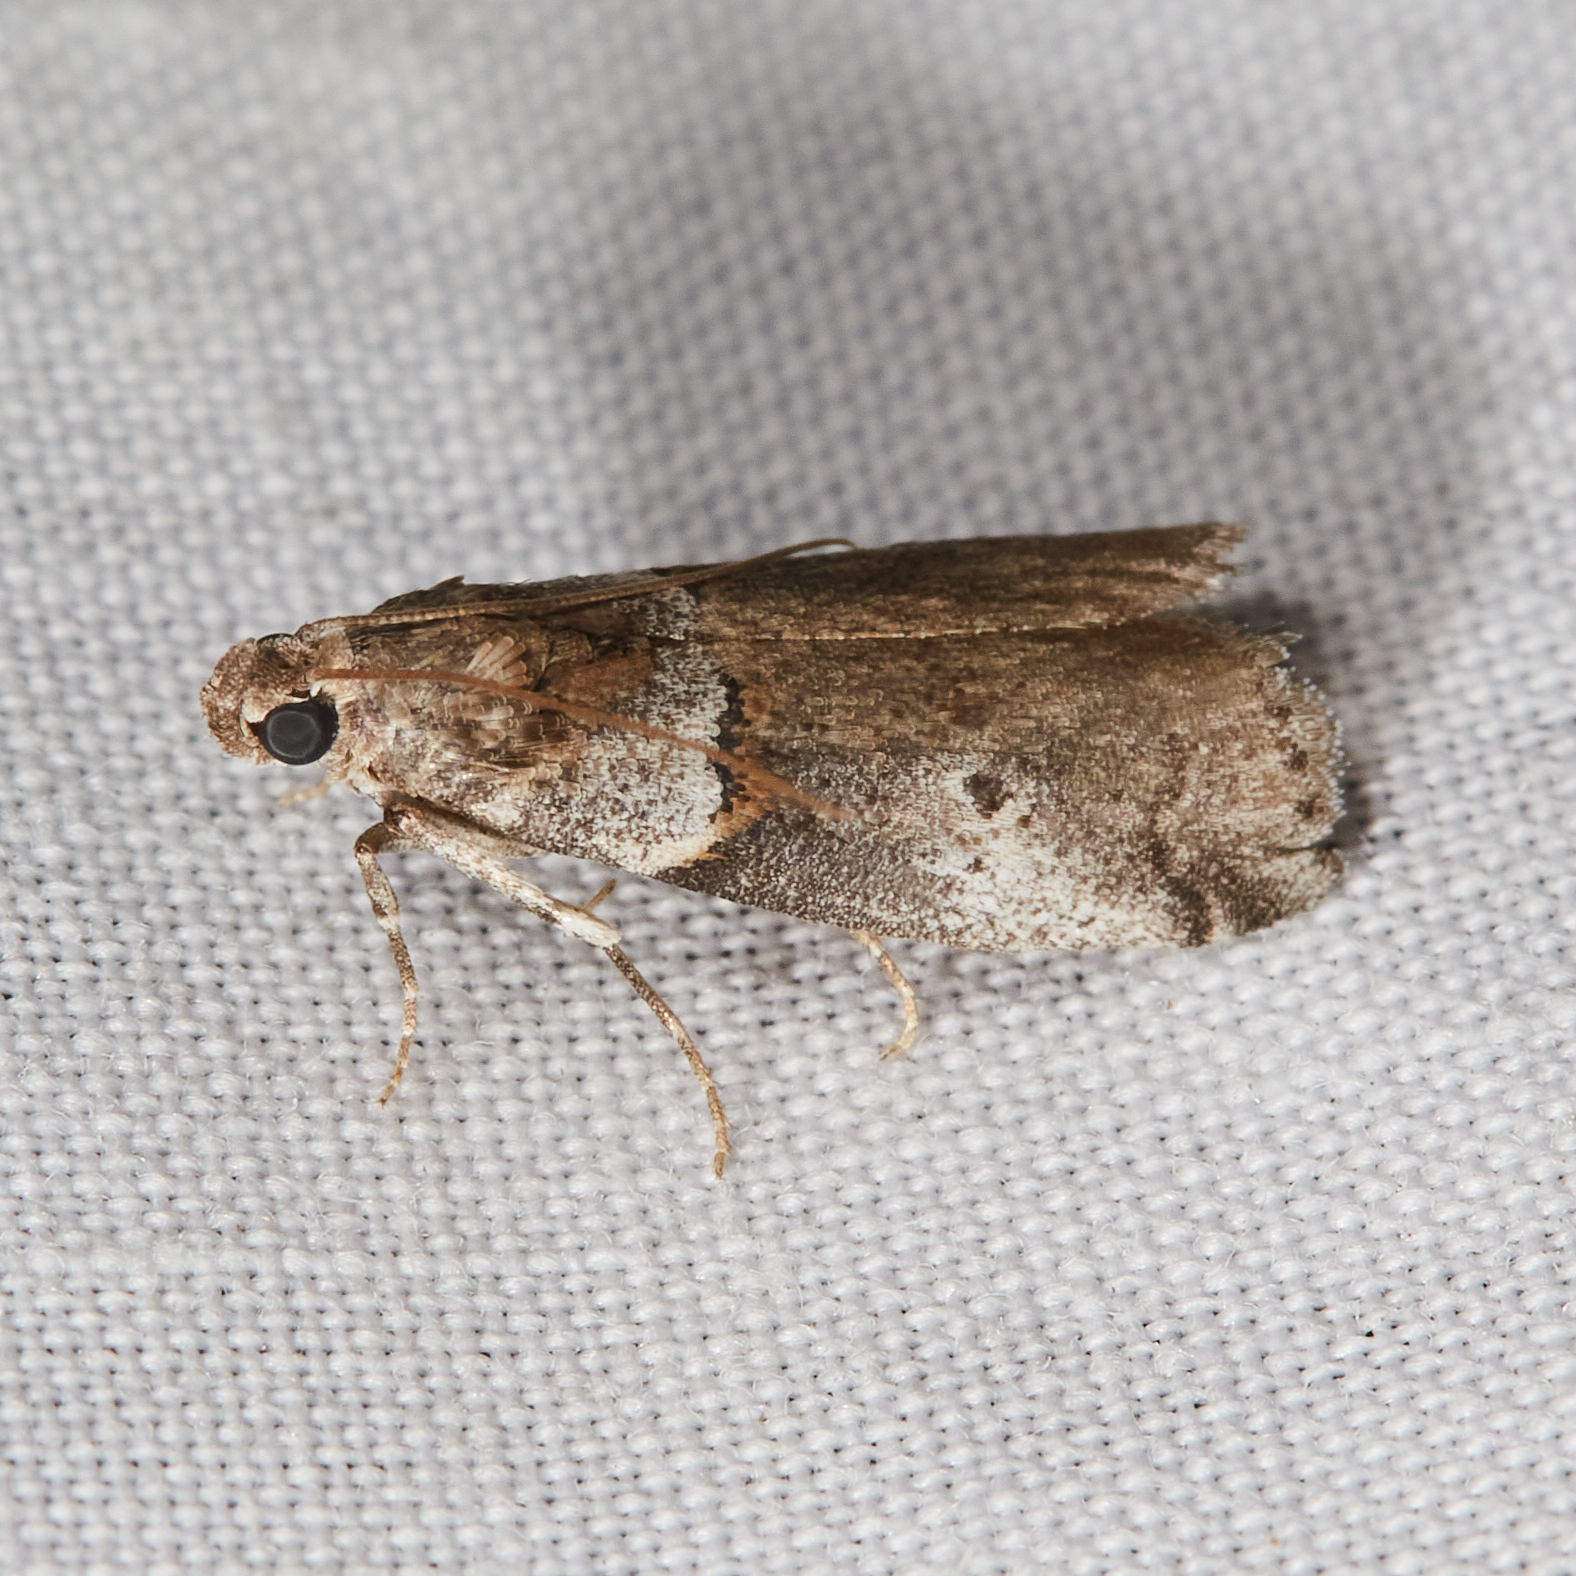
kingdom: Animalia
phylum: Arthropoda
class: Insecta
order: Lepidoptera
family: Pyralidae
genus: Acrobasis
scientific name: Acrobasis caliginella
